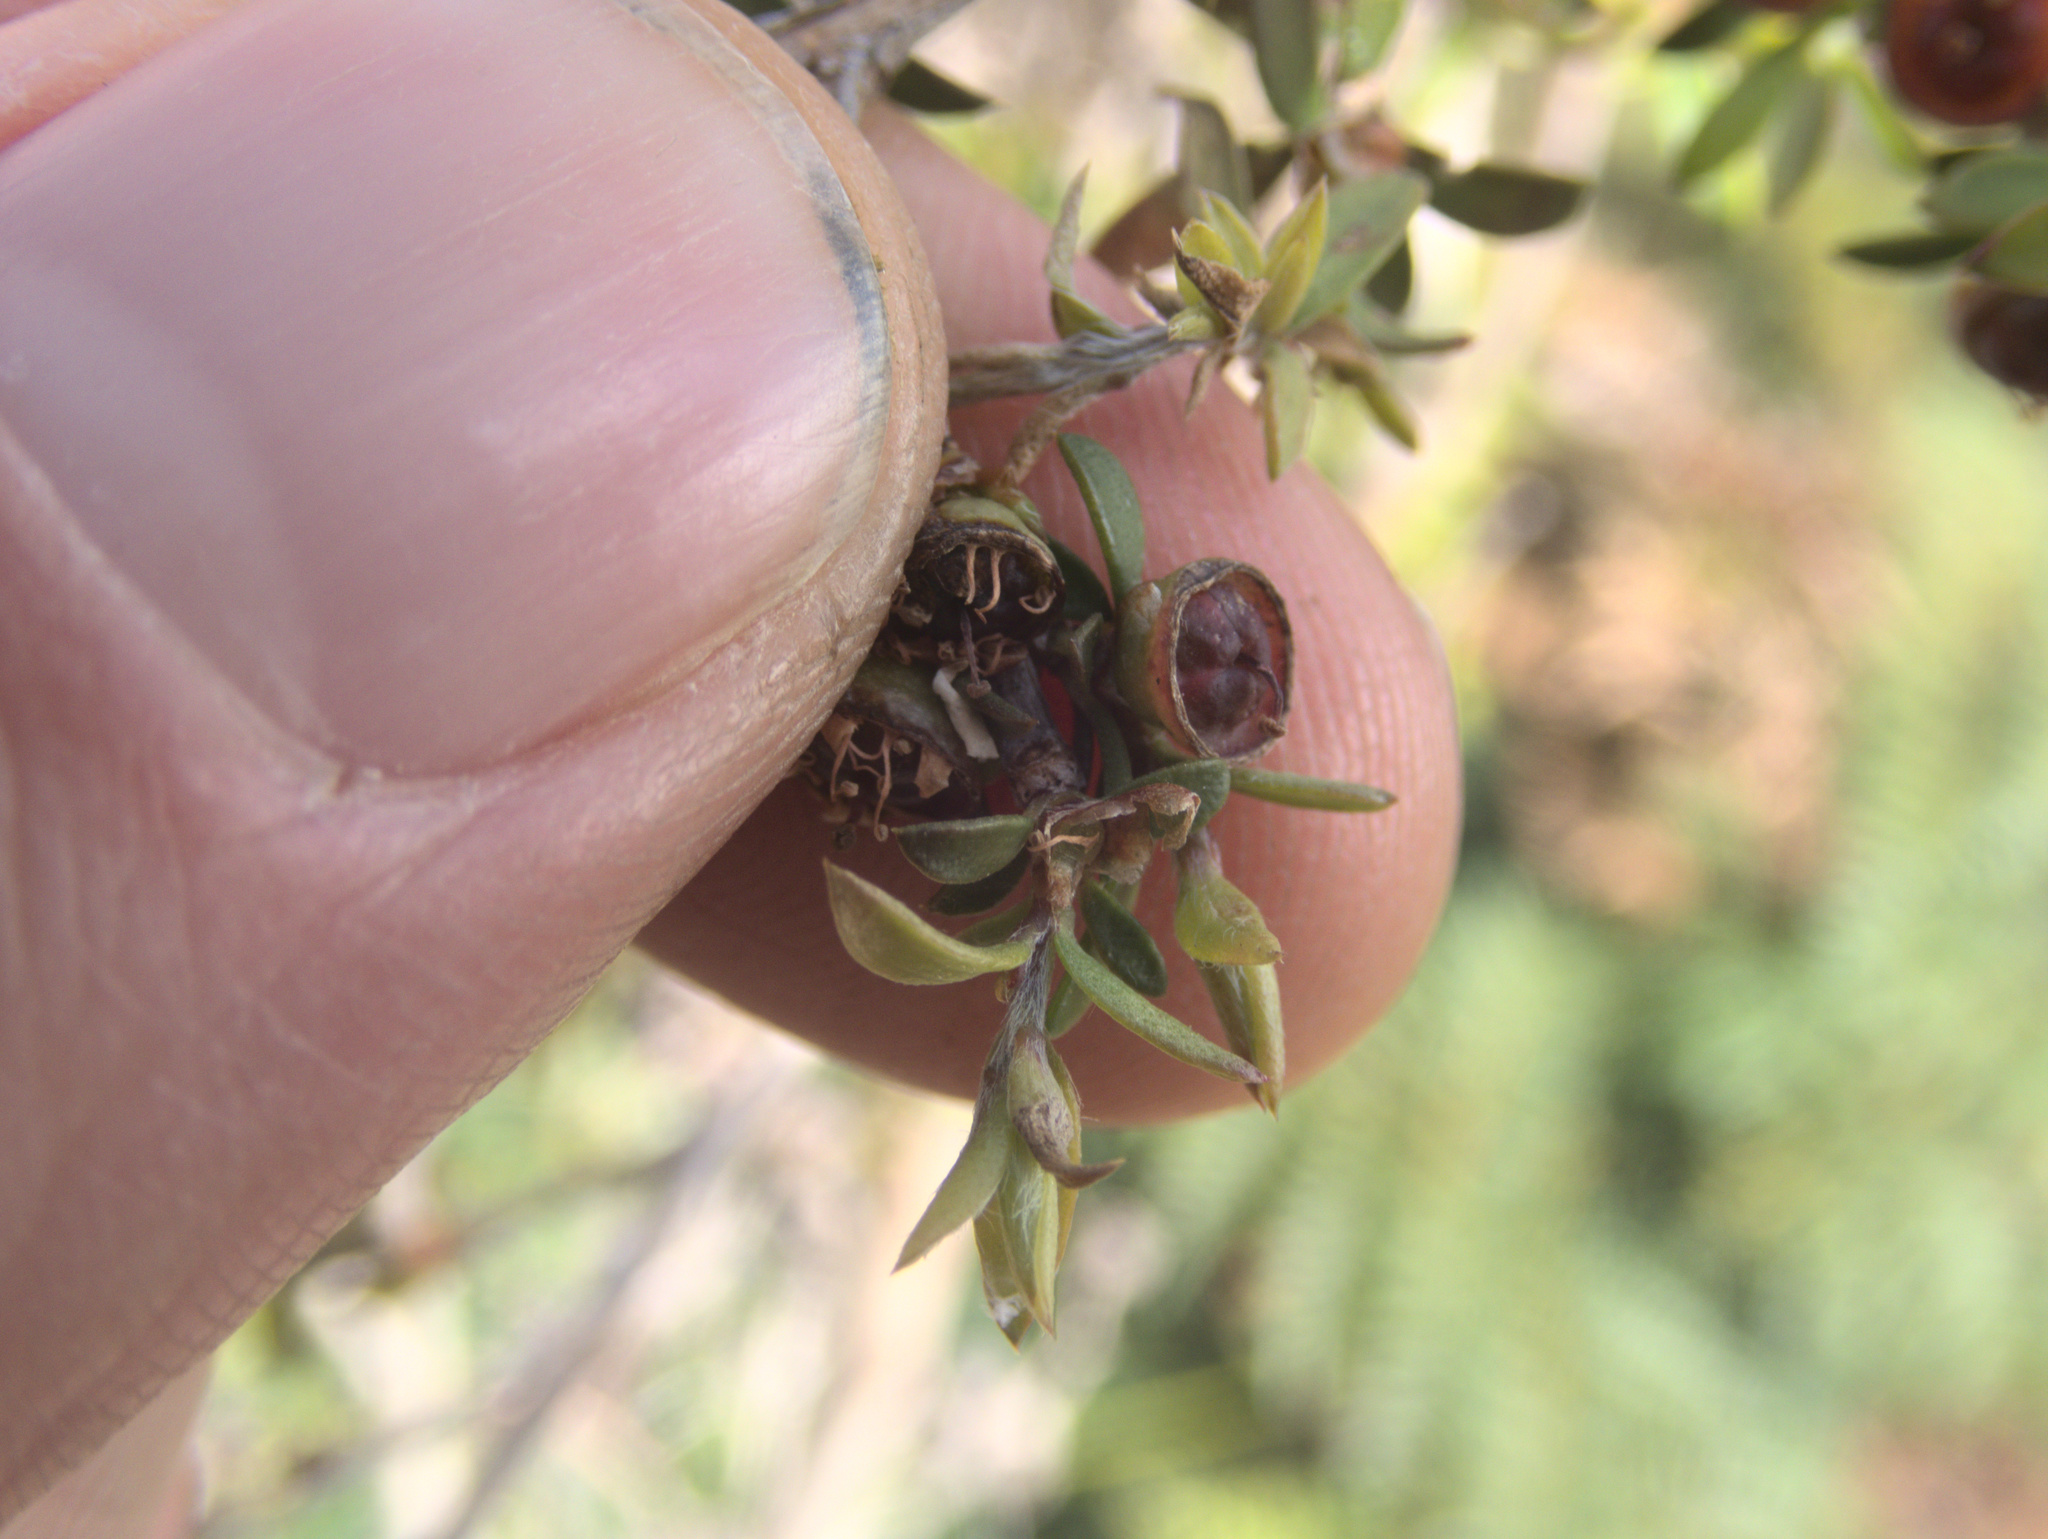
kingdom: Plantae
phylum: Tracheophyta
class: Magnoliopsida
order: Myrtales
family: Myrtaceae
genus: Leptospermum
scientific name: Leptospermum scoparium
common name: Broom tea-tree
